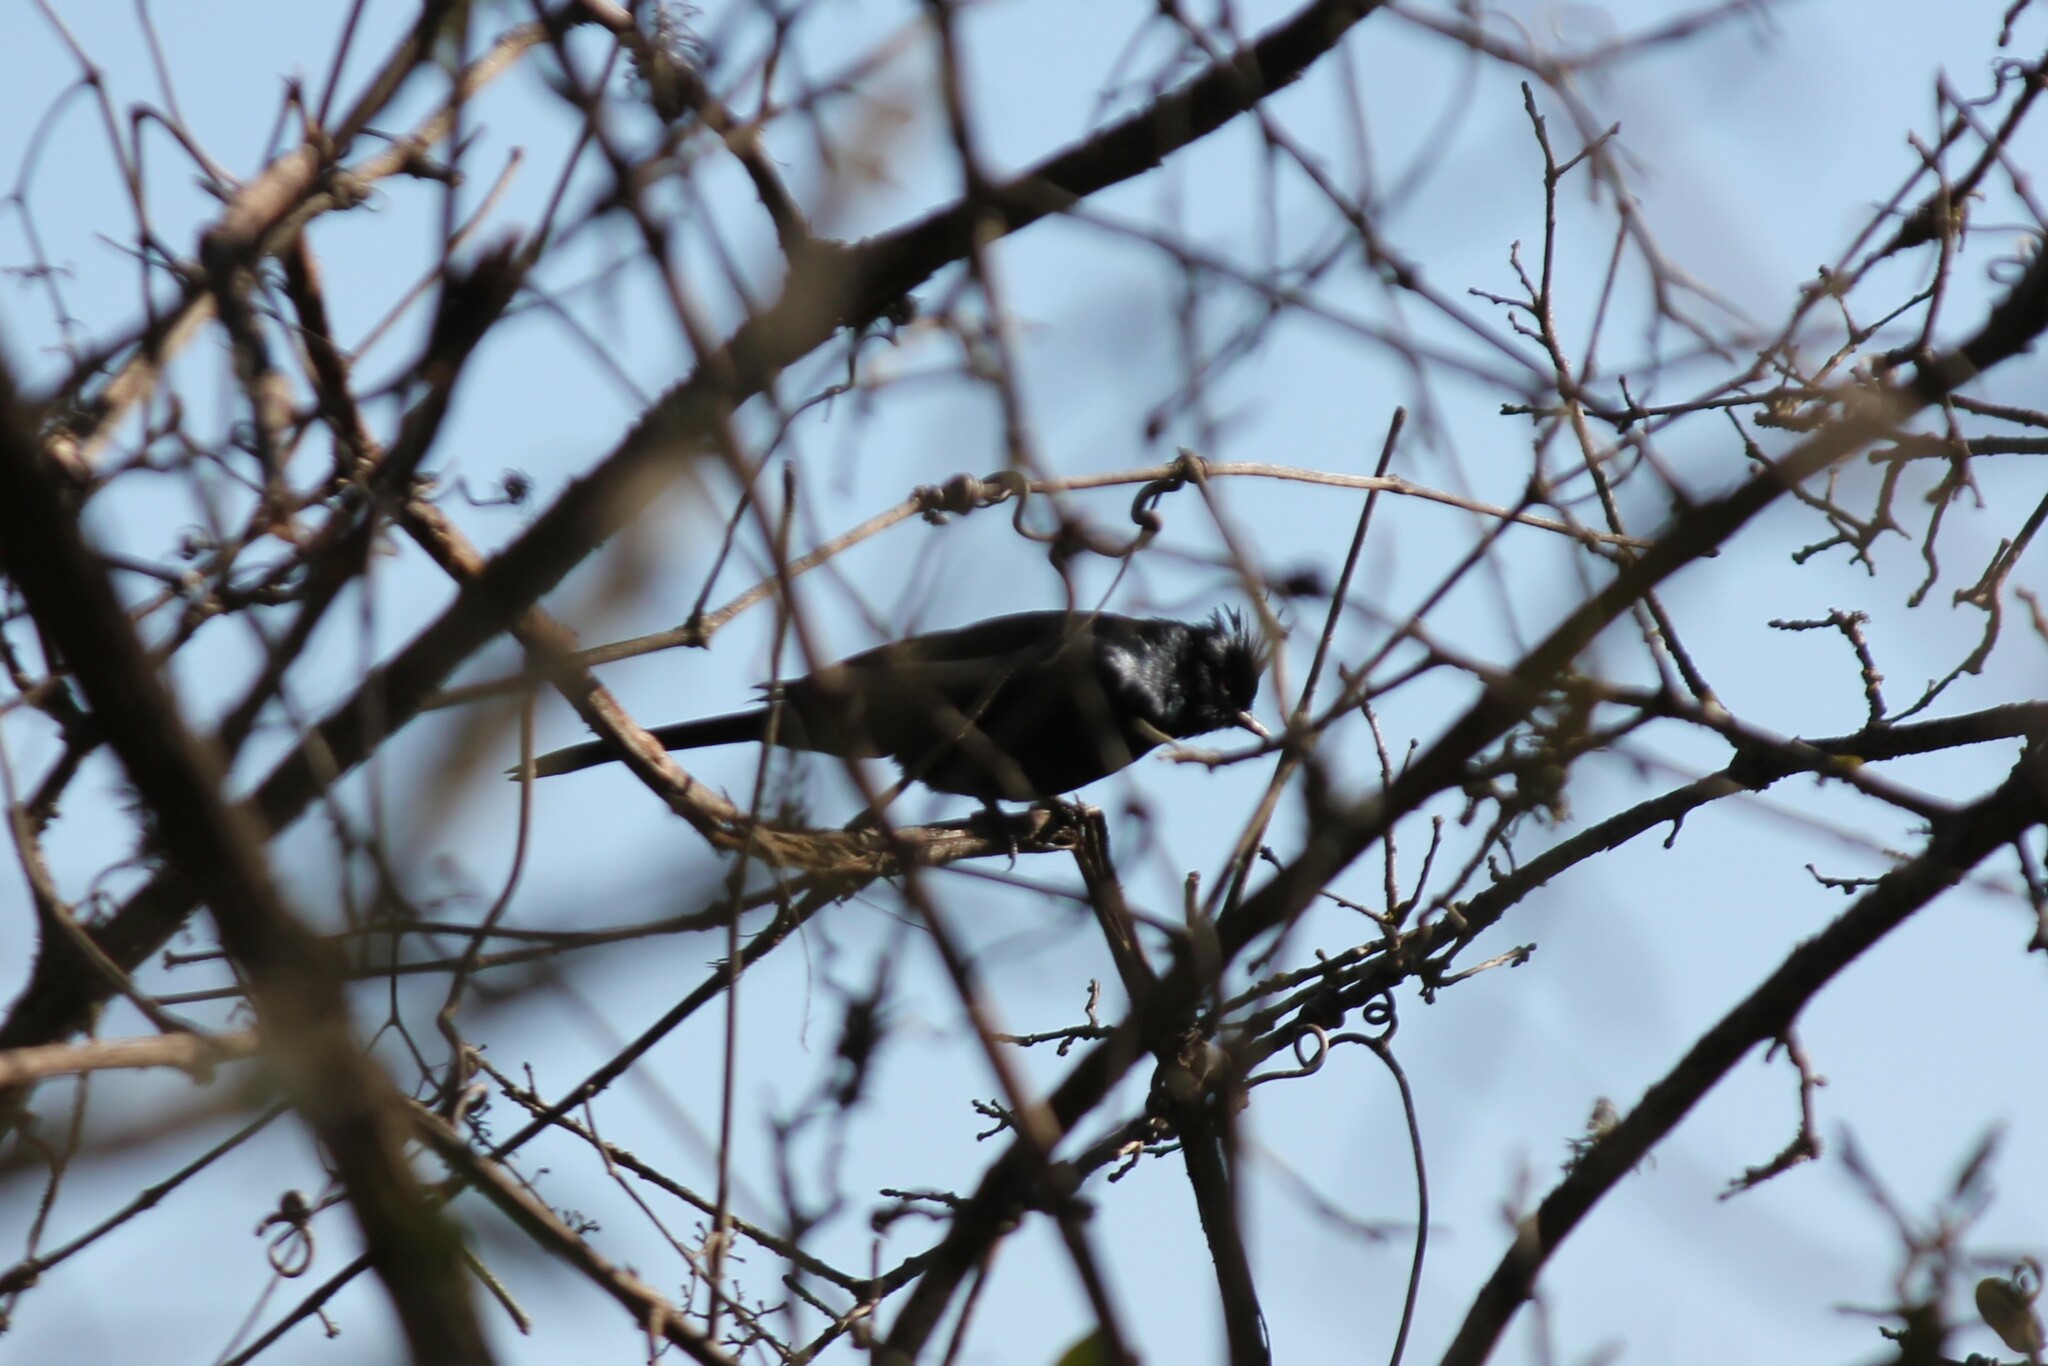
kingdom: Animalia
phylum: Chordata
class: Aves
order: Passeriformes
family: Ptilogonatidae
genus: Phainopepla
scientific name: Phainopepla nitens
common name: Phainopepla
